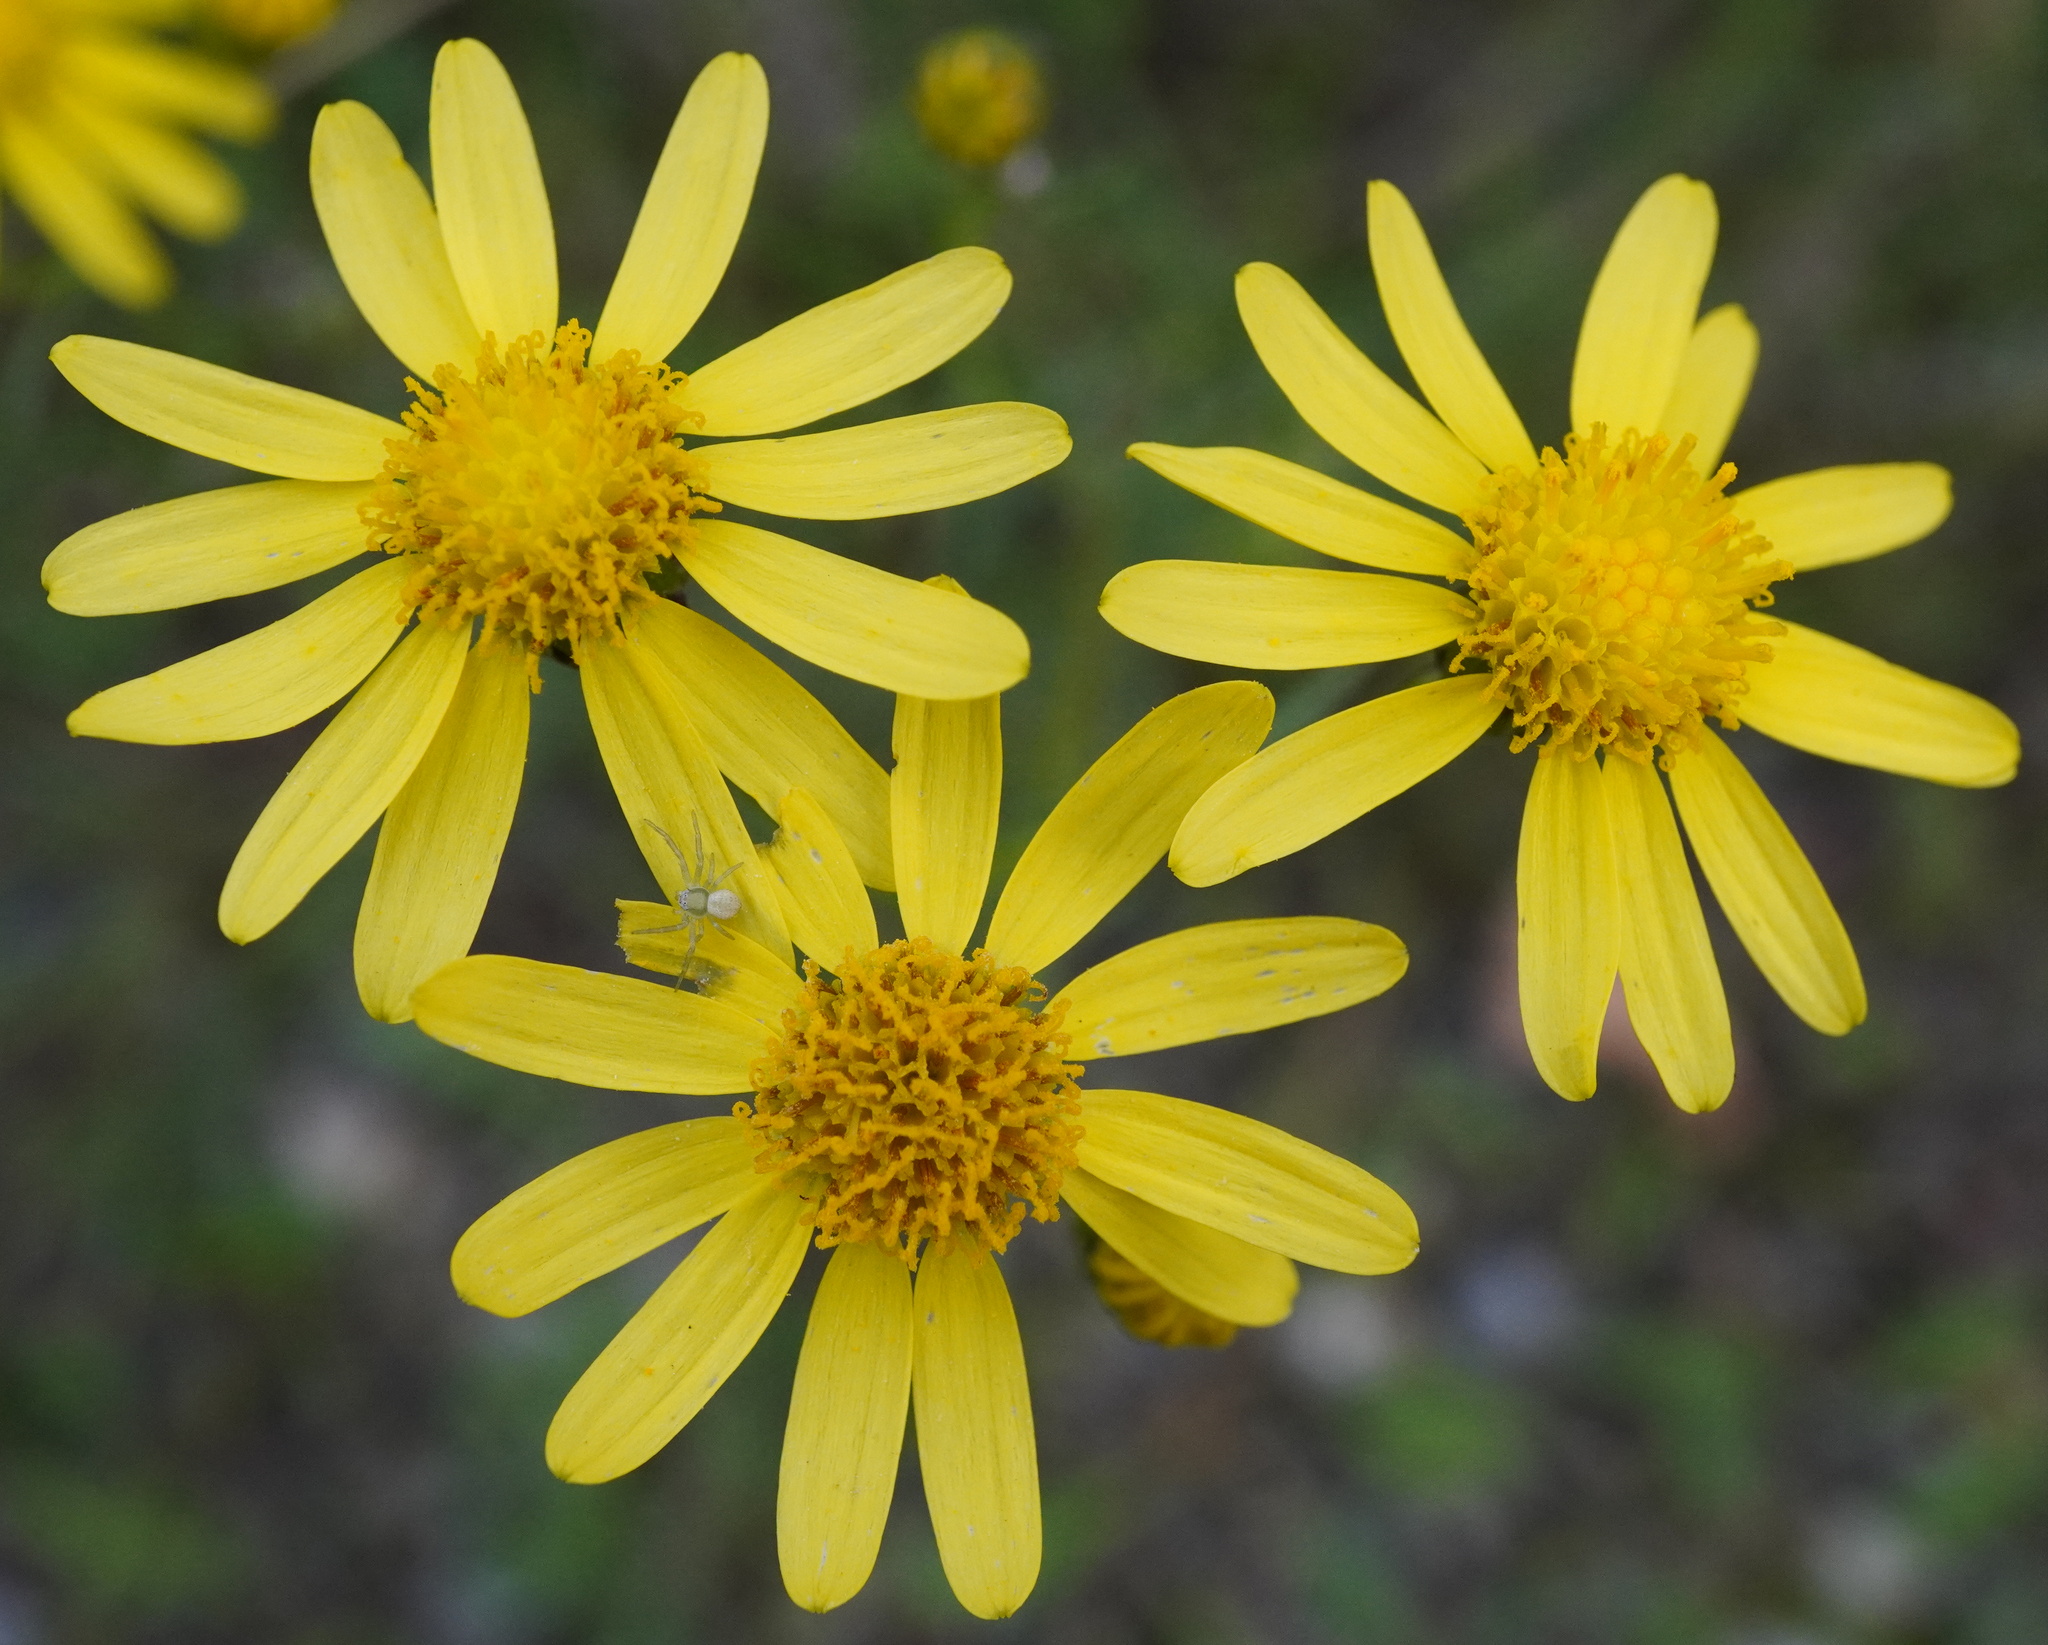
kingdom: Plantae
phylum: Tracheophyta
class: Magnoliopsida
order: Asterales
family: Asteraceae
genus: Senecio
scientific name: Senecio inaequidens
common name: Narrow-leaved ragwort
